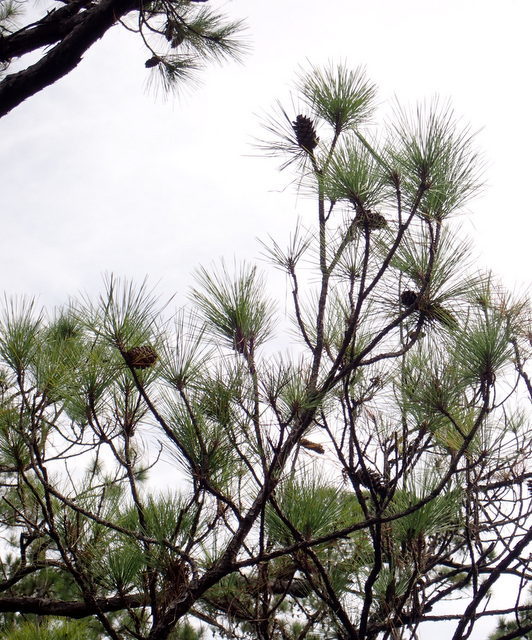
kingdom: Plantae
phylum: Tracheophyta
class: Pinopsida
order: Pinales
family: Pinaceae
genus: Pinus
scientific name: Pinus elliottii
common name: Slash pine
